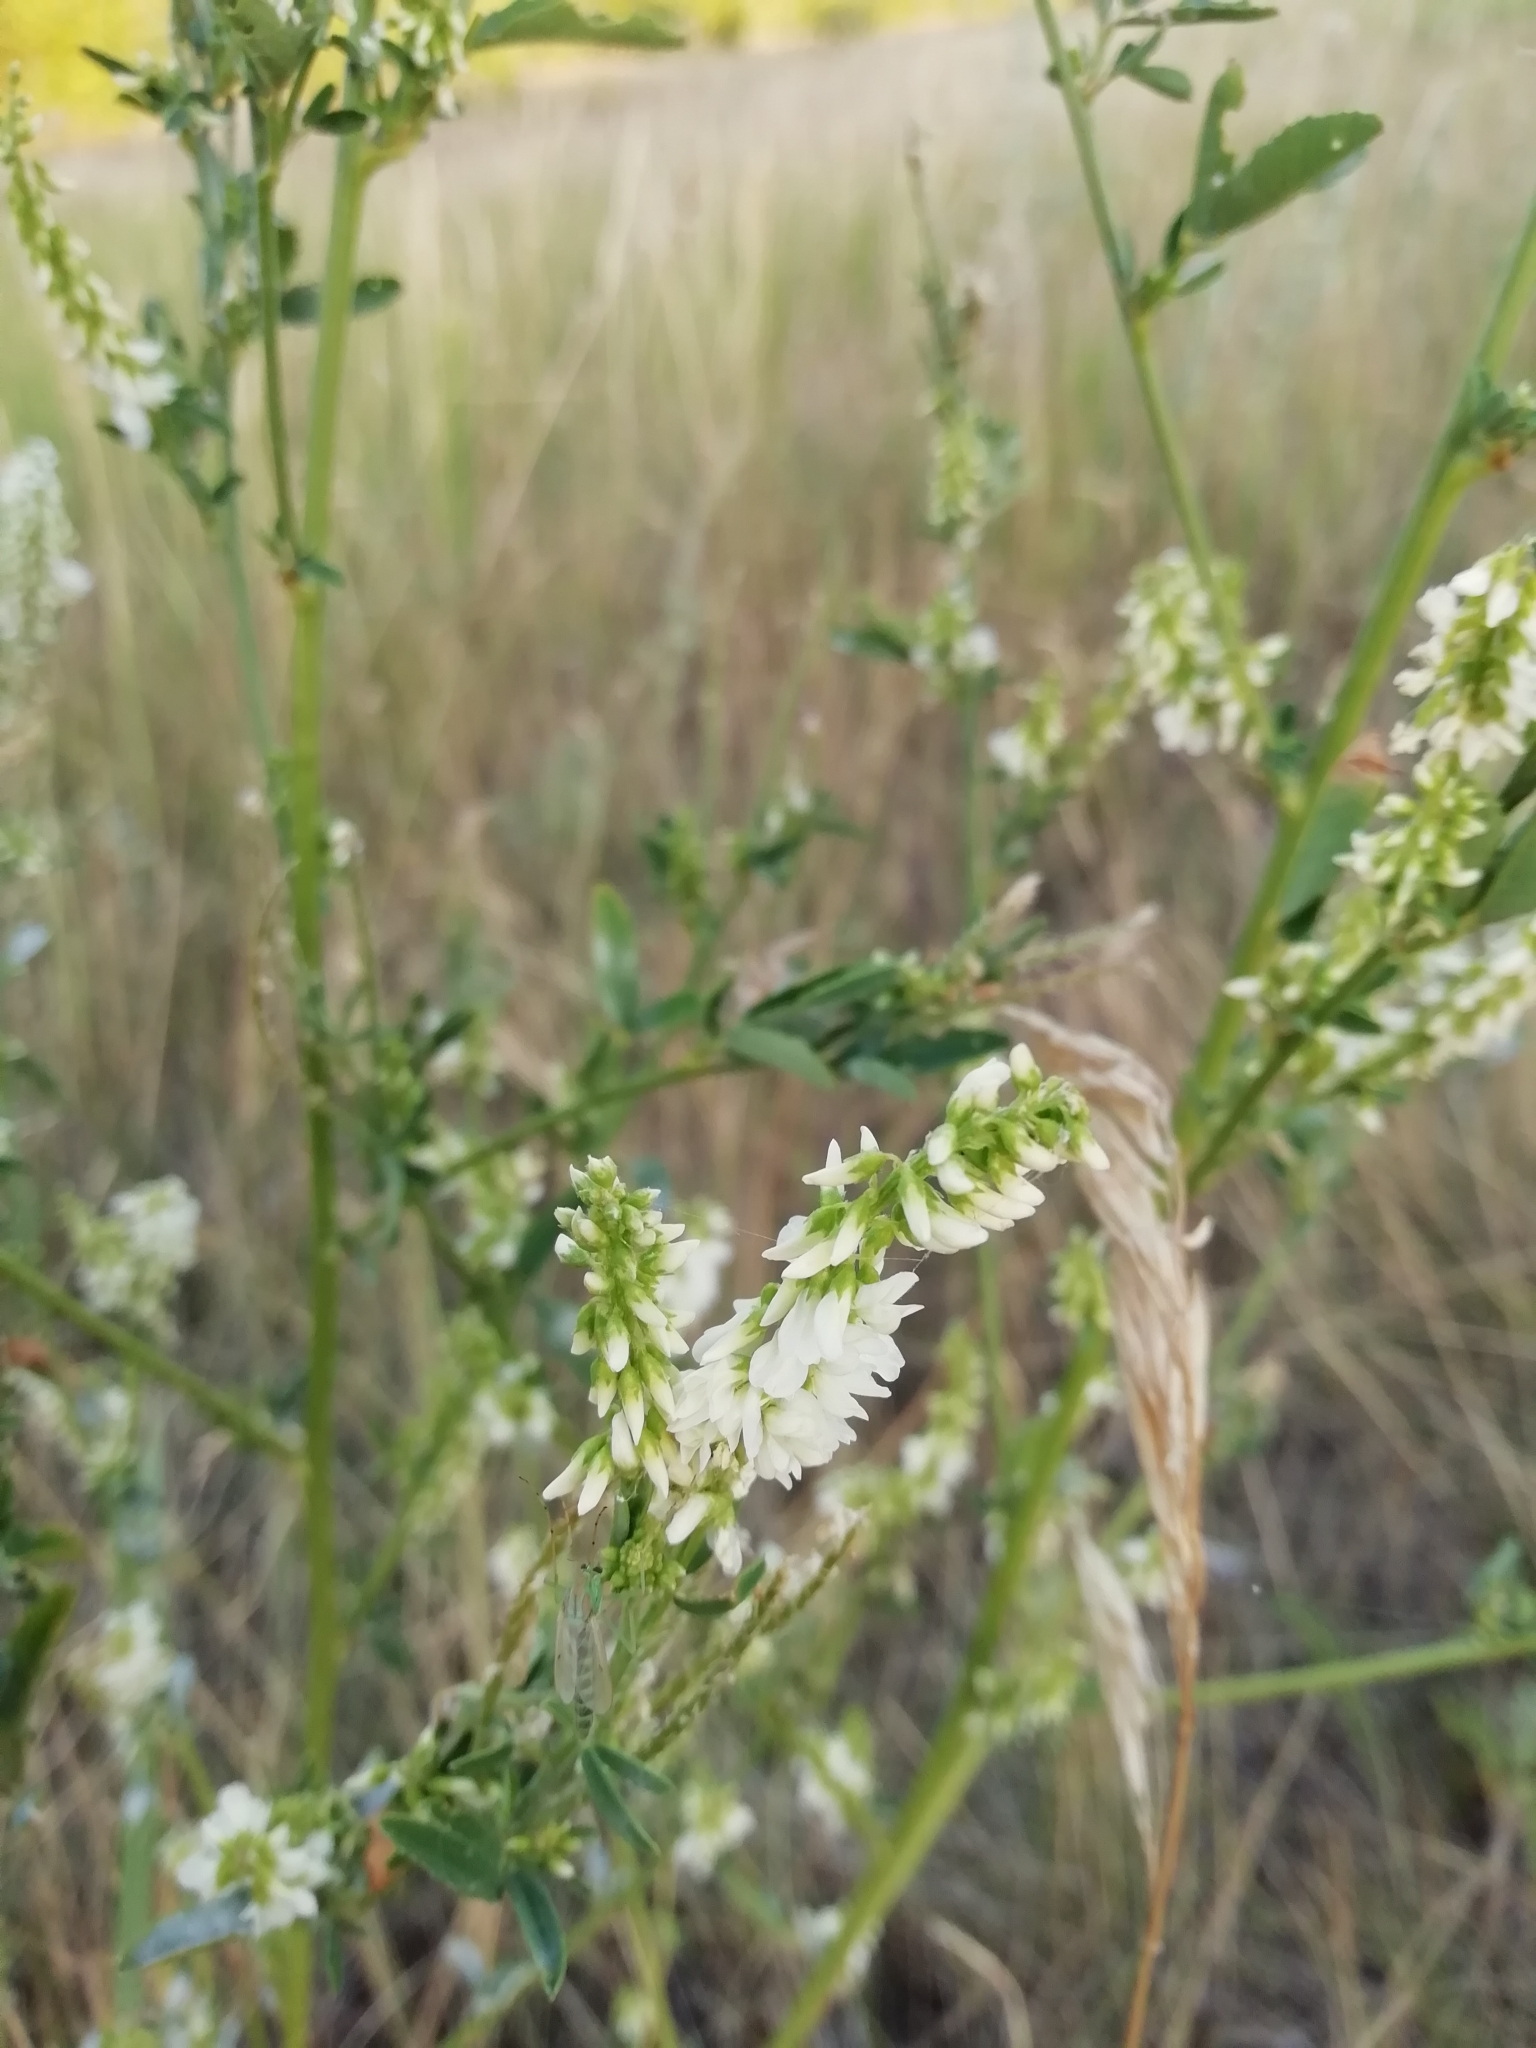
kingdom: Plantae
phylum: Tracheophyta
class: Magnoliopsida
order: Fabales
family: Fabaceae
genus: Melilotus
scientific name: Melilotus albus
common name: White melilot
